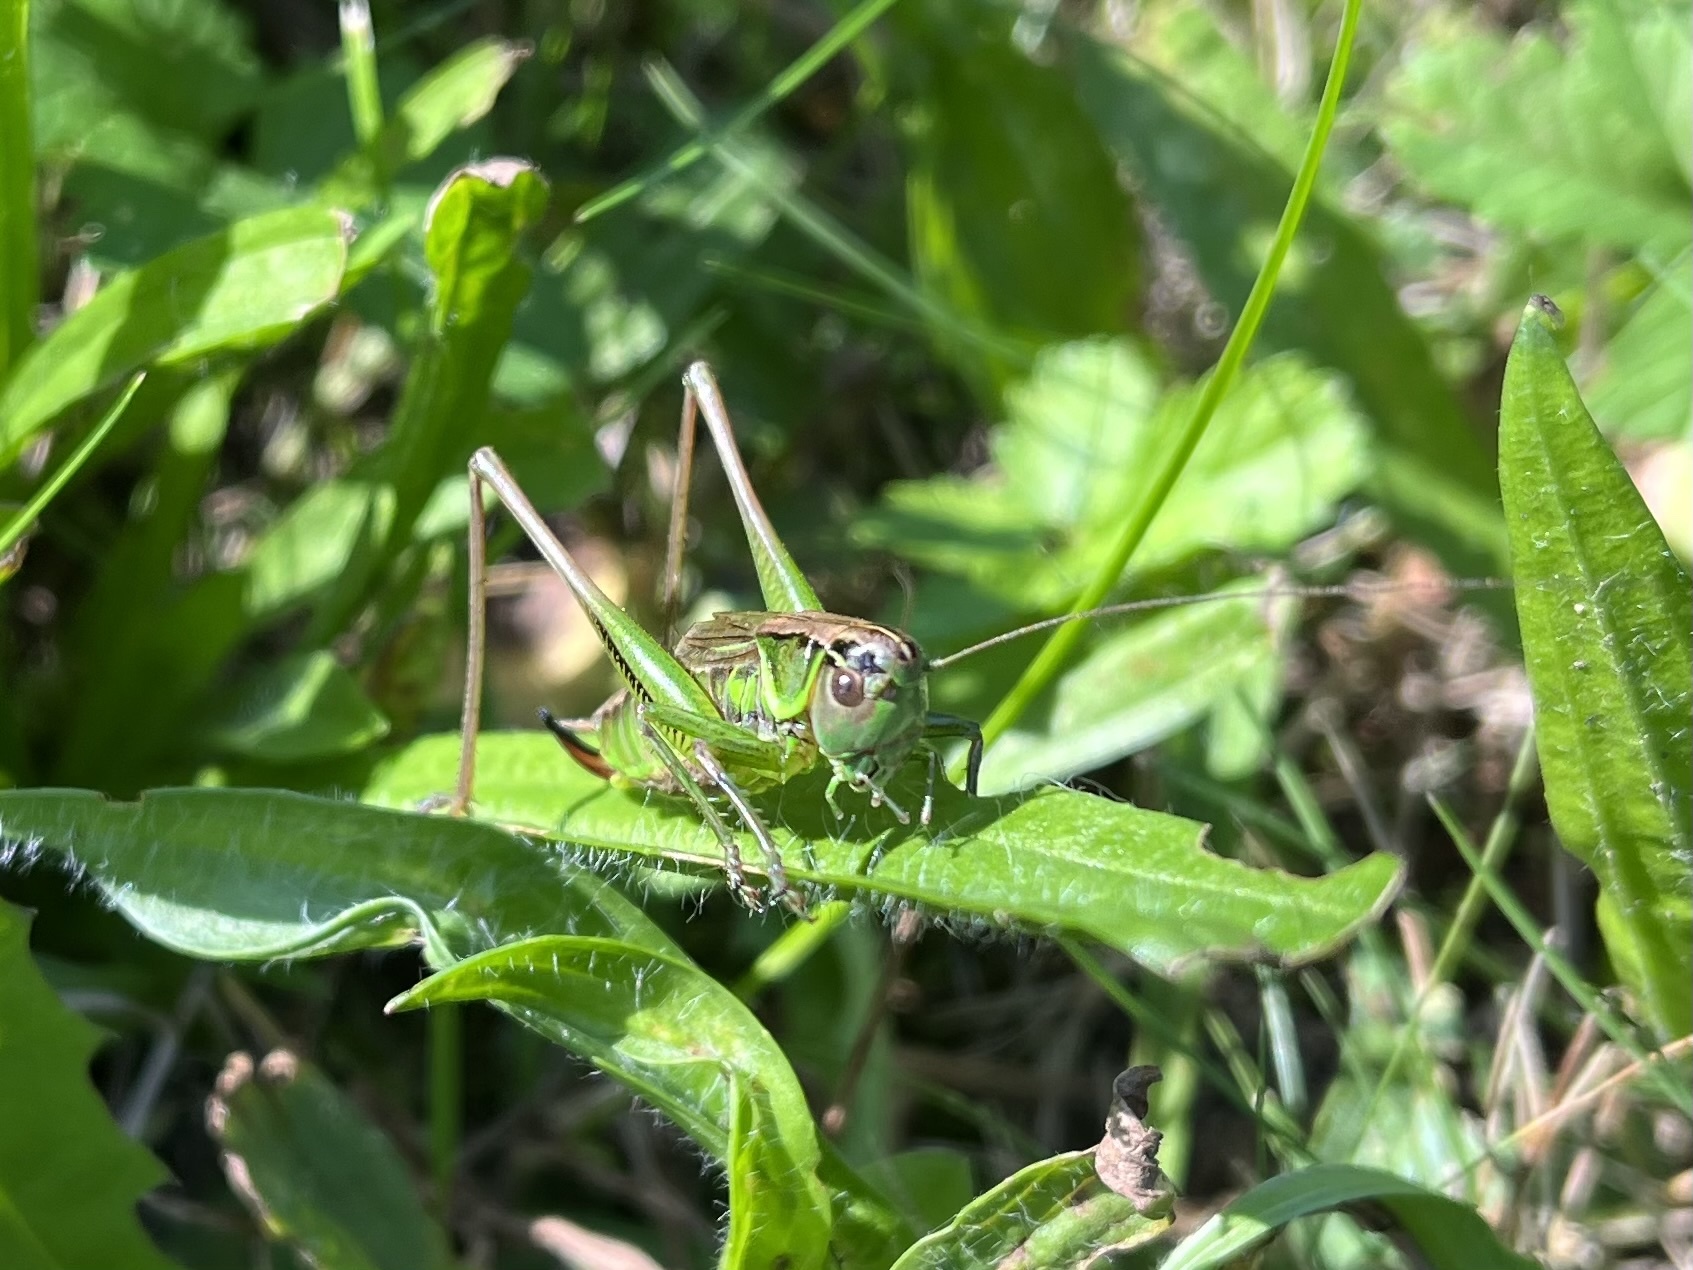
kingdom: Animalia
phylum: Arthropoda
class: Insecta
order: Orthoptera
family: Tettigoniidae
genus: Roeseliana
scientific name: Roeseliana roeselii
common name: Roesel's bush cricket
